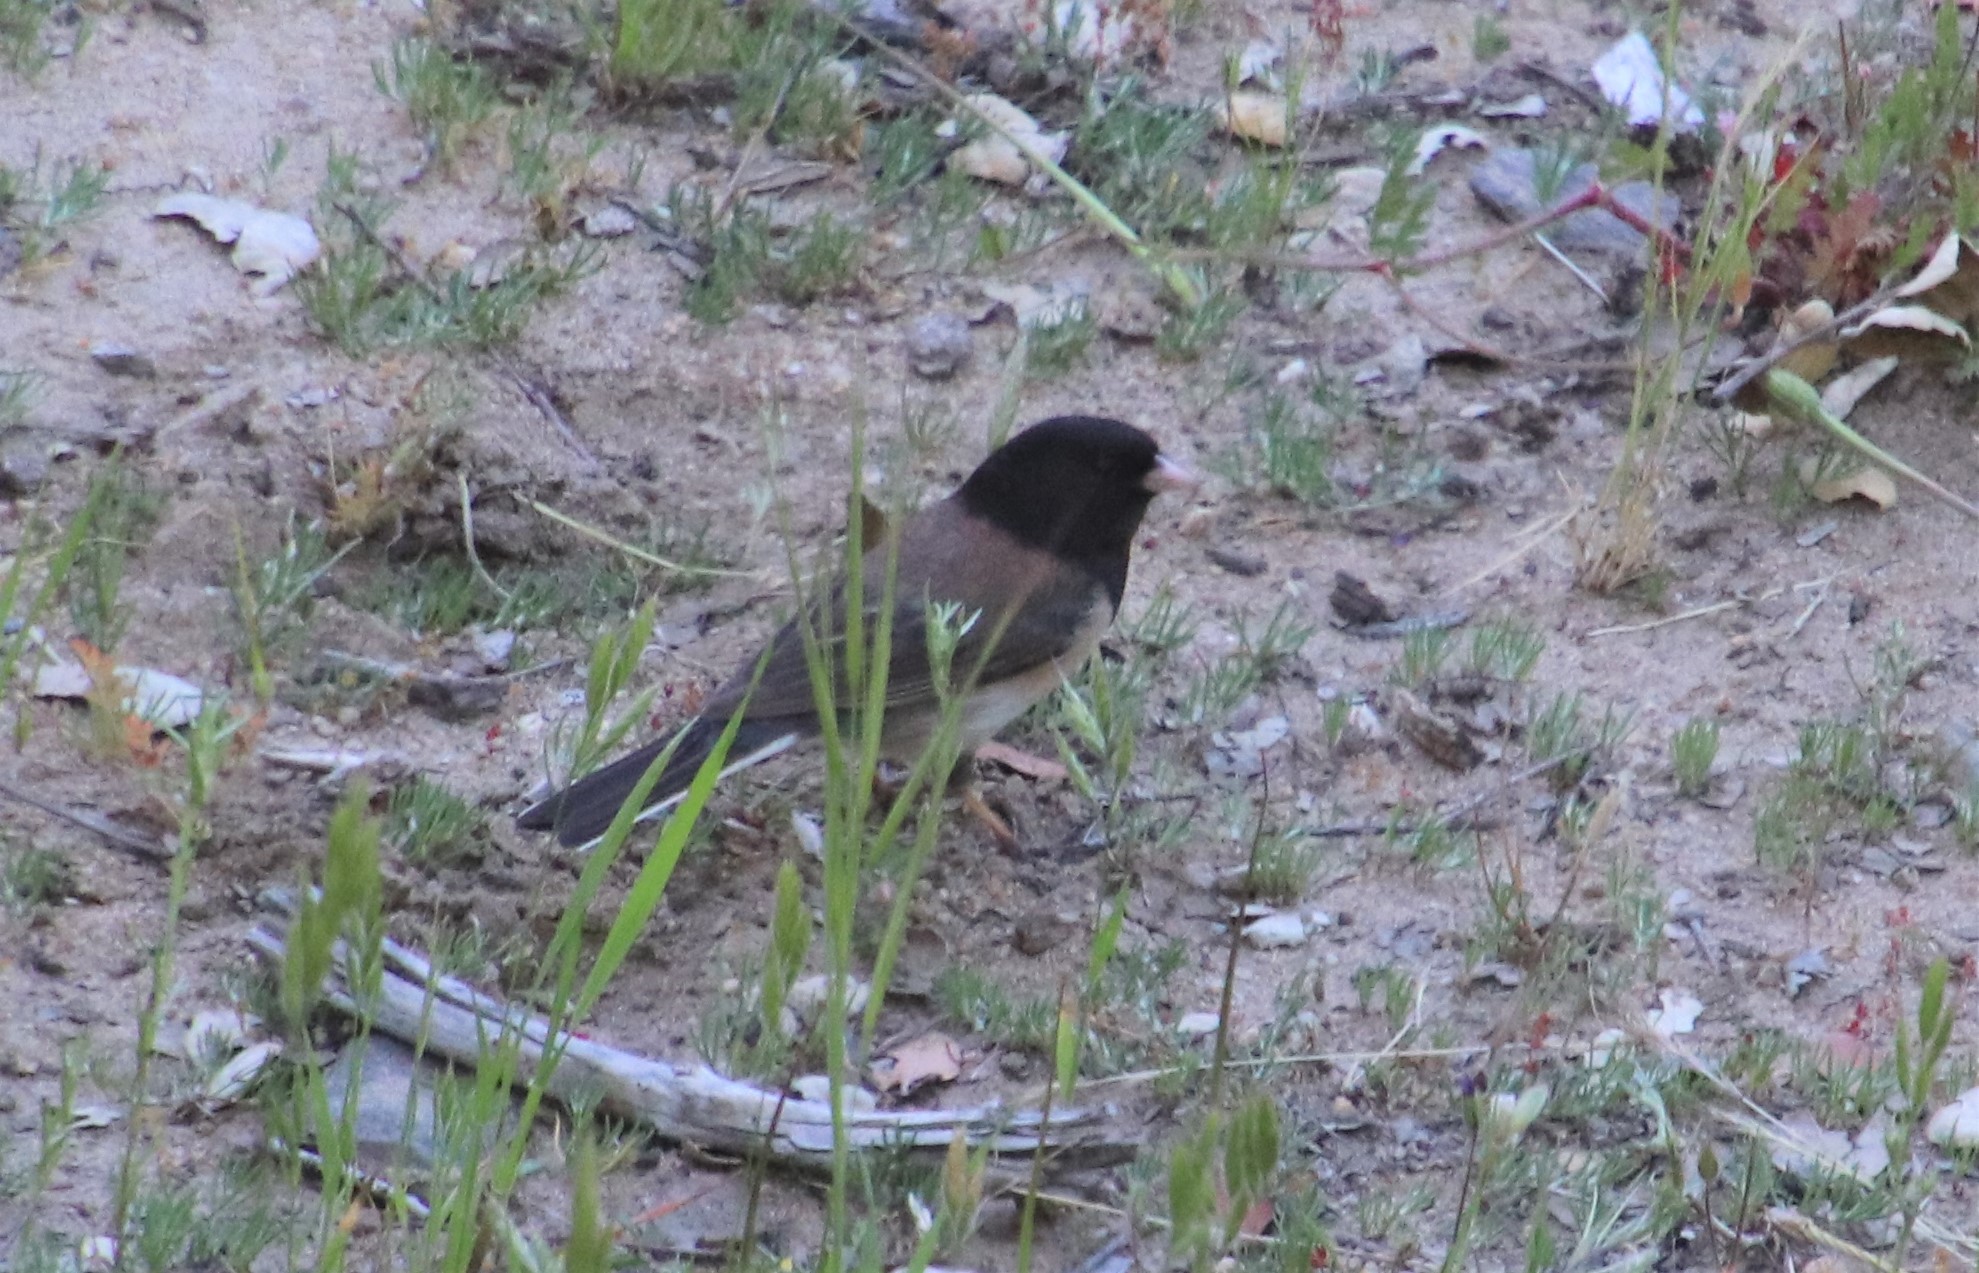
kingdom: Animalia
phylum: Chordata
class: Aves
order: Passeriformes
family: Passerellidae
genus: Junco
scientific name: Junco hyemalis
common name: Dark-eyed junco
